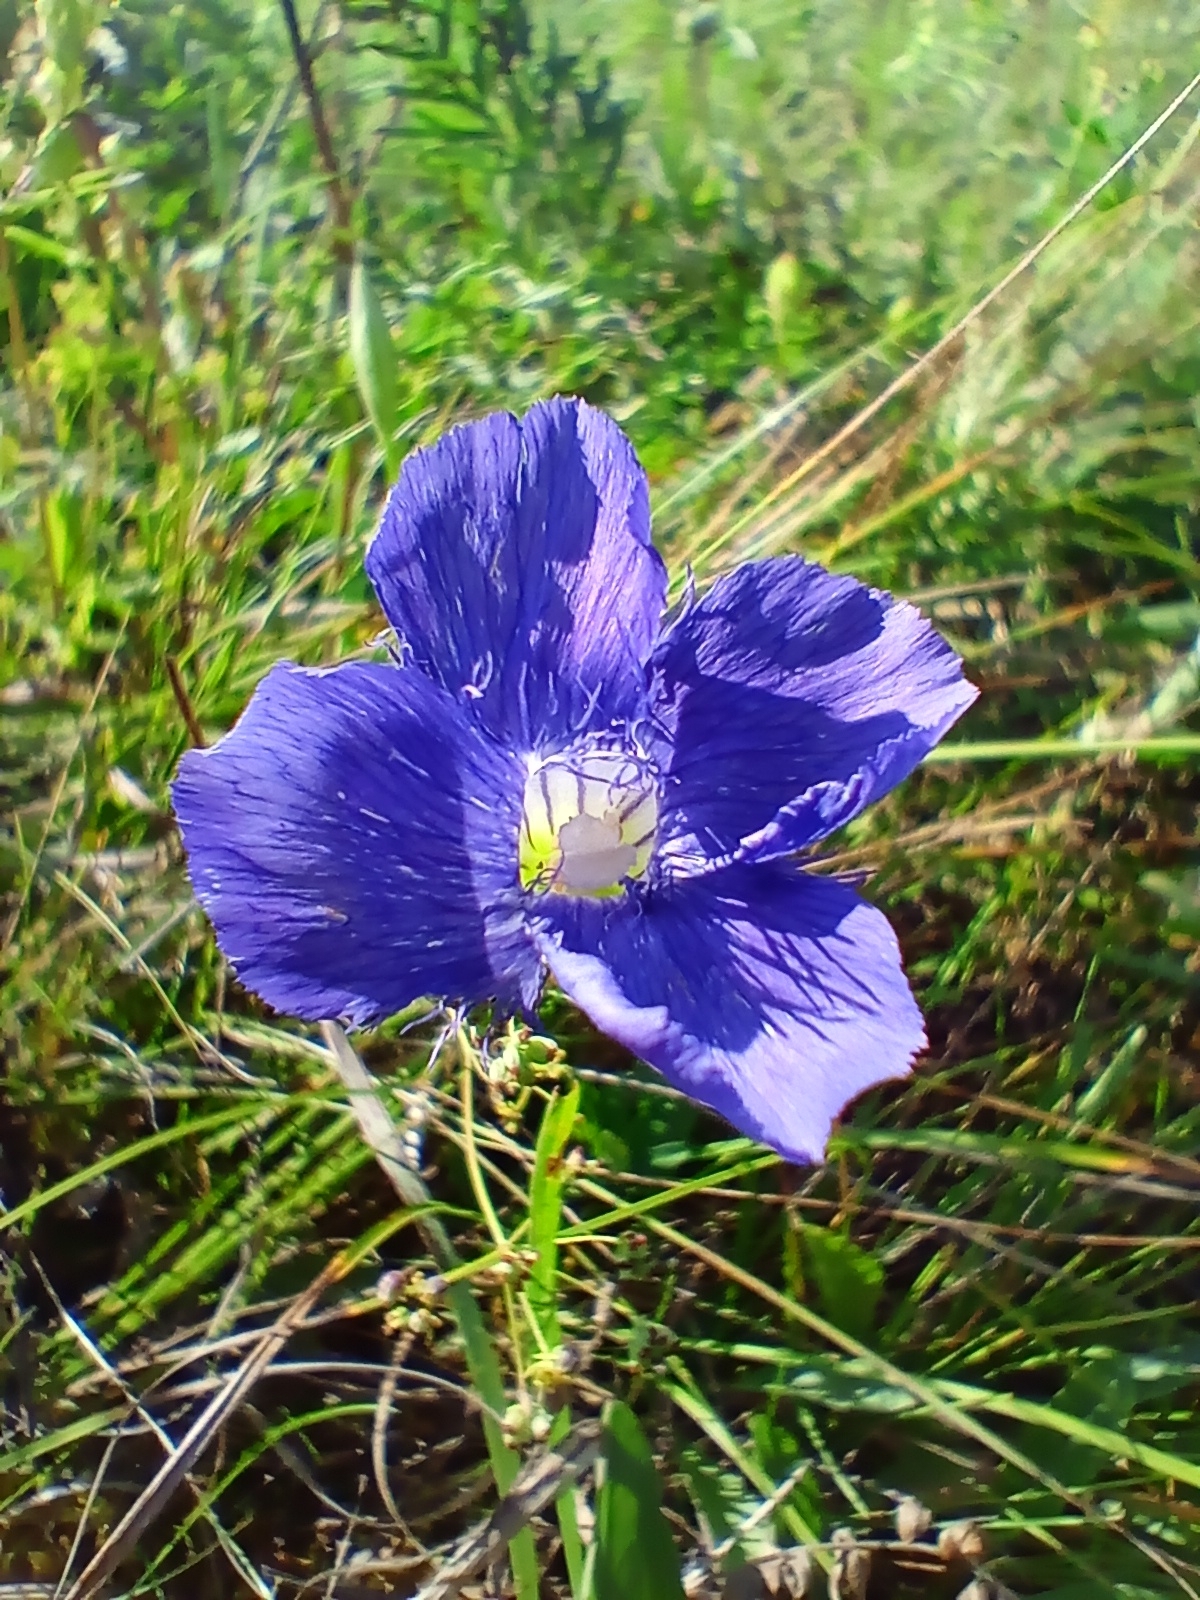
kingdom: Plantae
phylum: Tracheophyta
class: Magnoliopsida
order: Gentianales
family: Gentianaceae
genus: Gentianopsis
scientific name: Gentianopsis barbata
